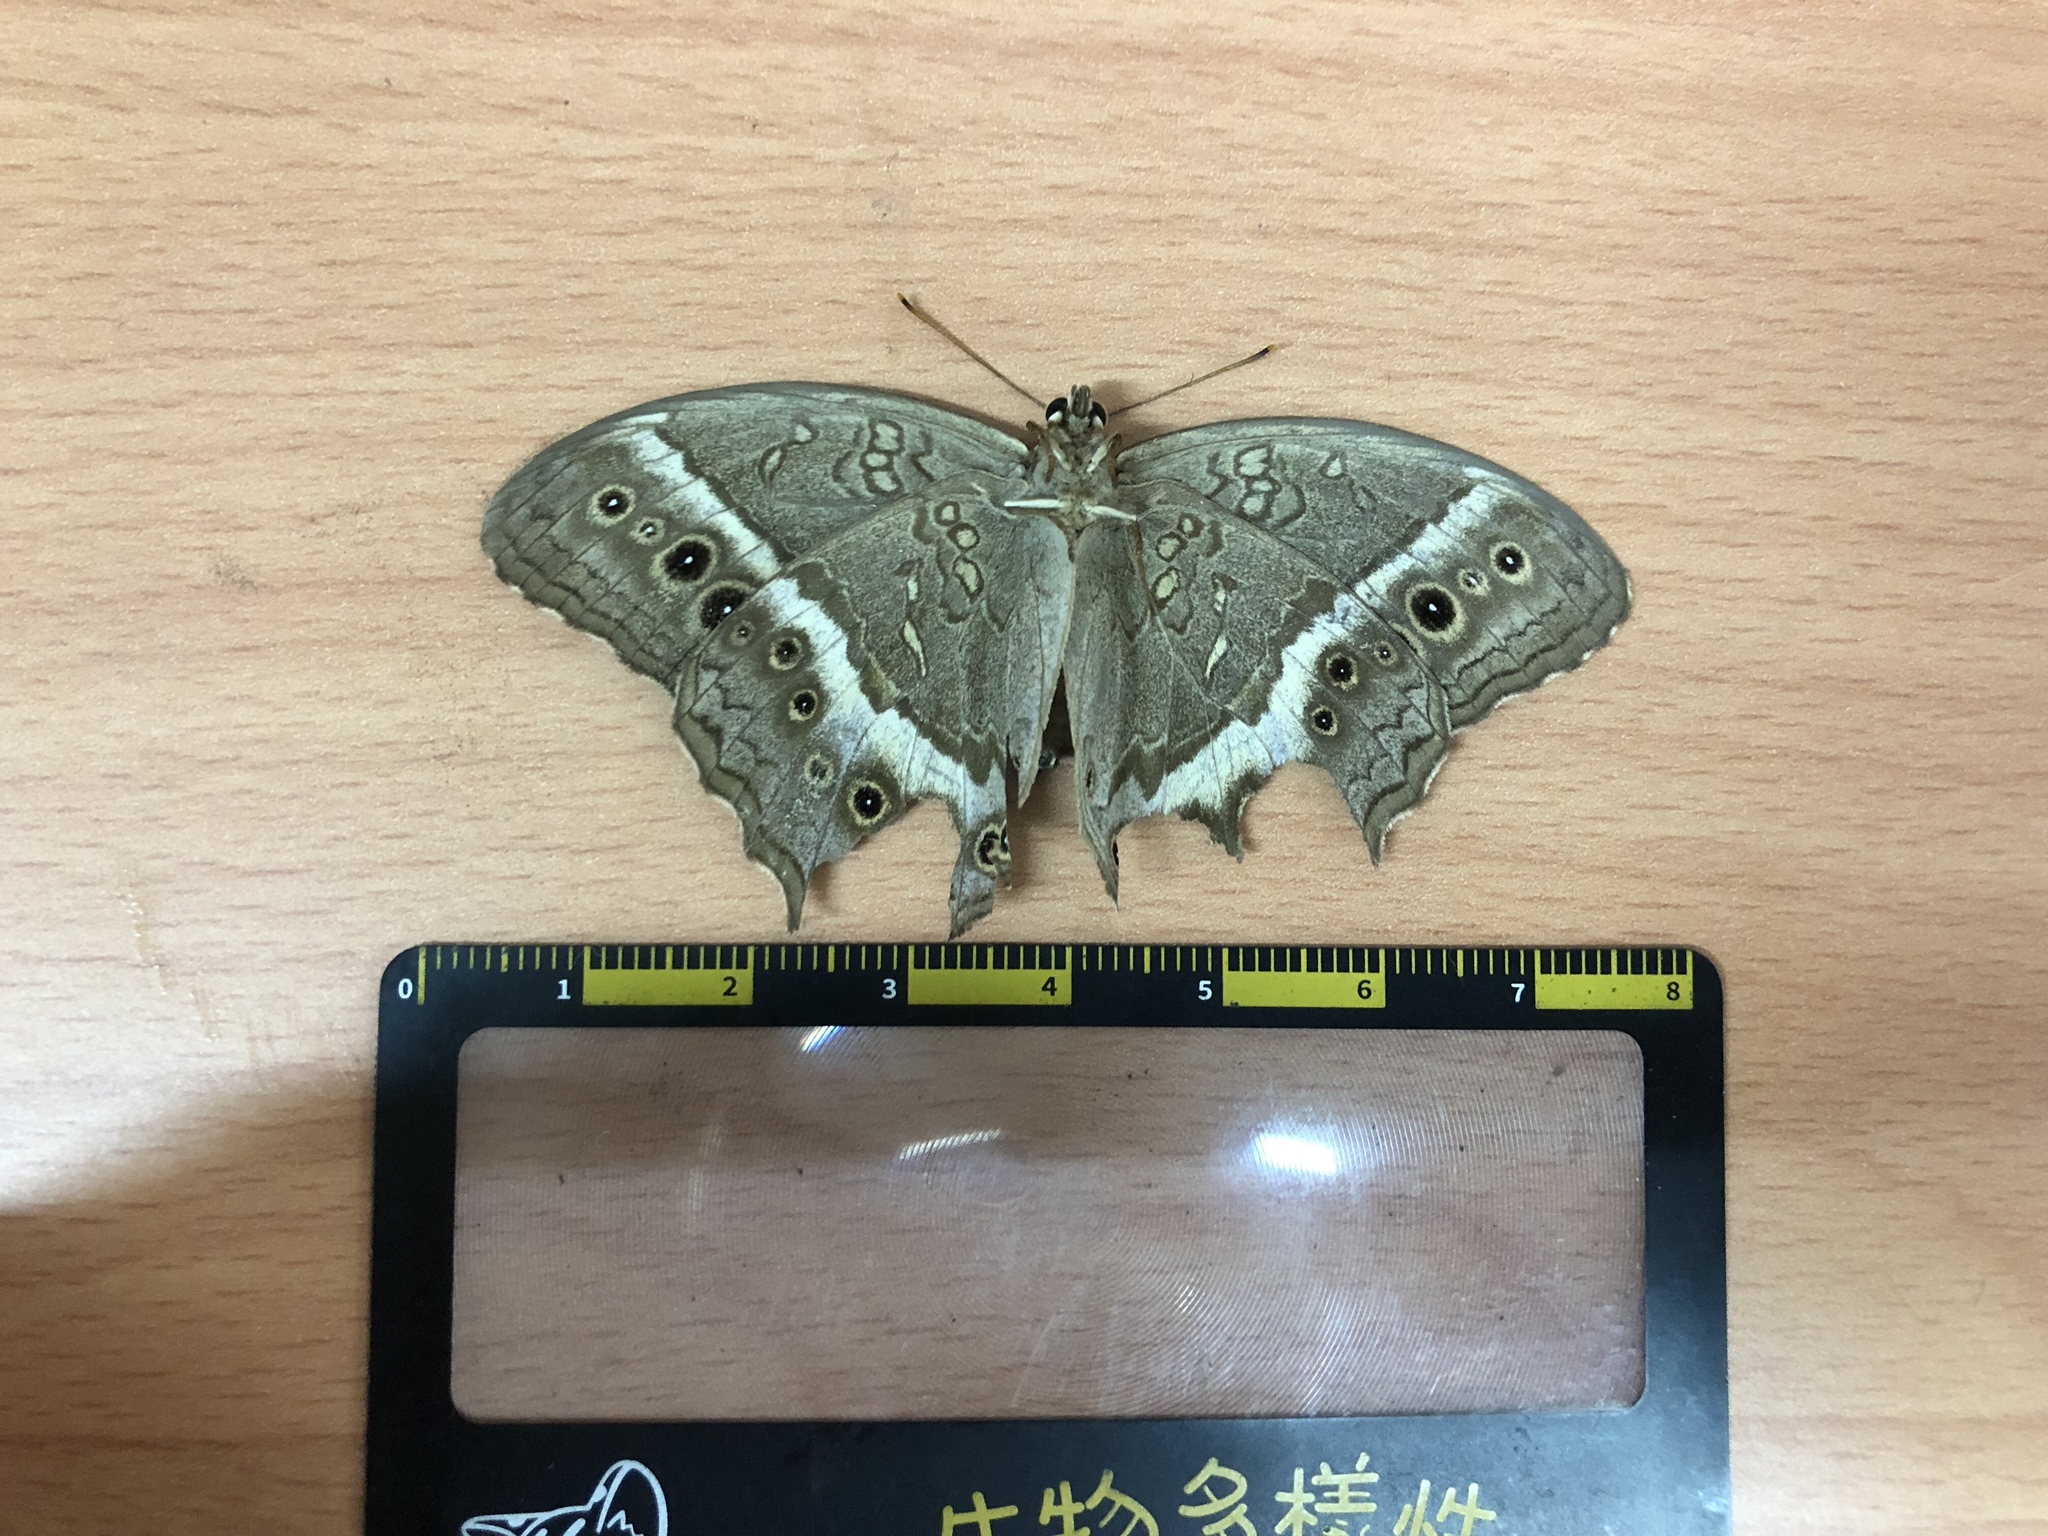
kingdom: Animalia
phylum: Arthropoda
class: Insecta
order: Lepidoptera
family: Nymphalidae
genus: Neope
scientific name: Neope muirheadii
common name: Black-spotted labyrinth
